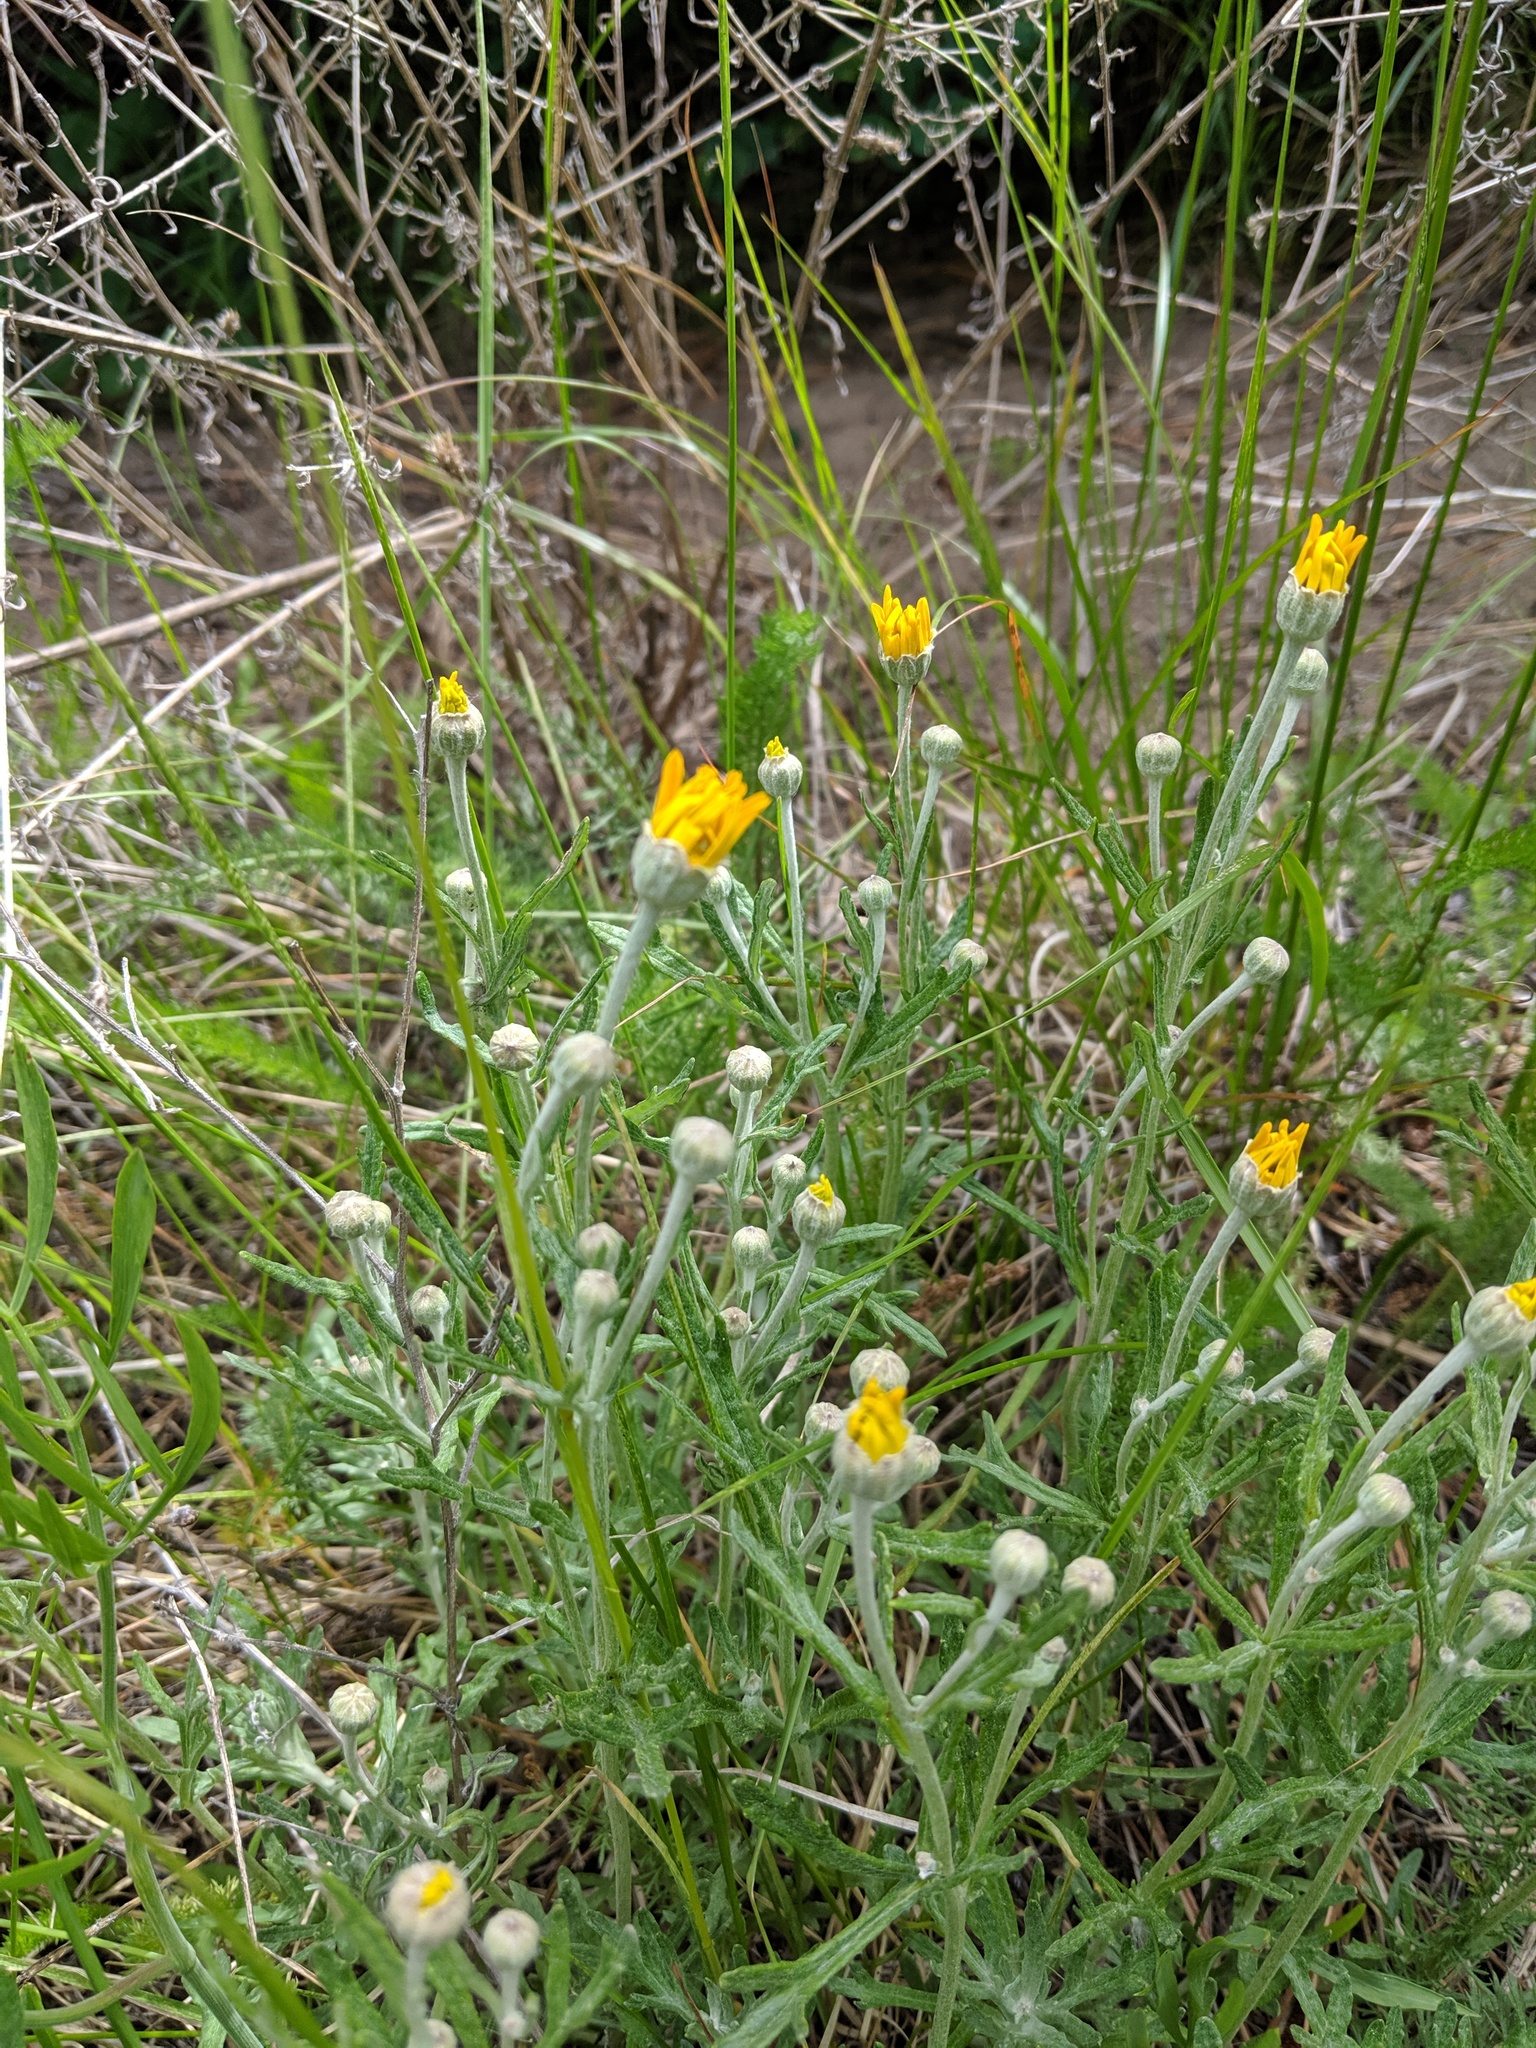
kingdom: Plantae
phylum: Tracheophyta
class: Magnoliopsida
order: Asterales
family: Asteraceae
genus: Eriophyllum
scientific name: Eriophyllum lanatum
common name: Common woolly-sunflower
